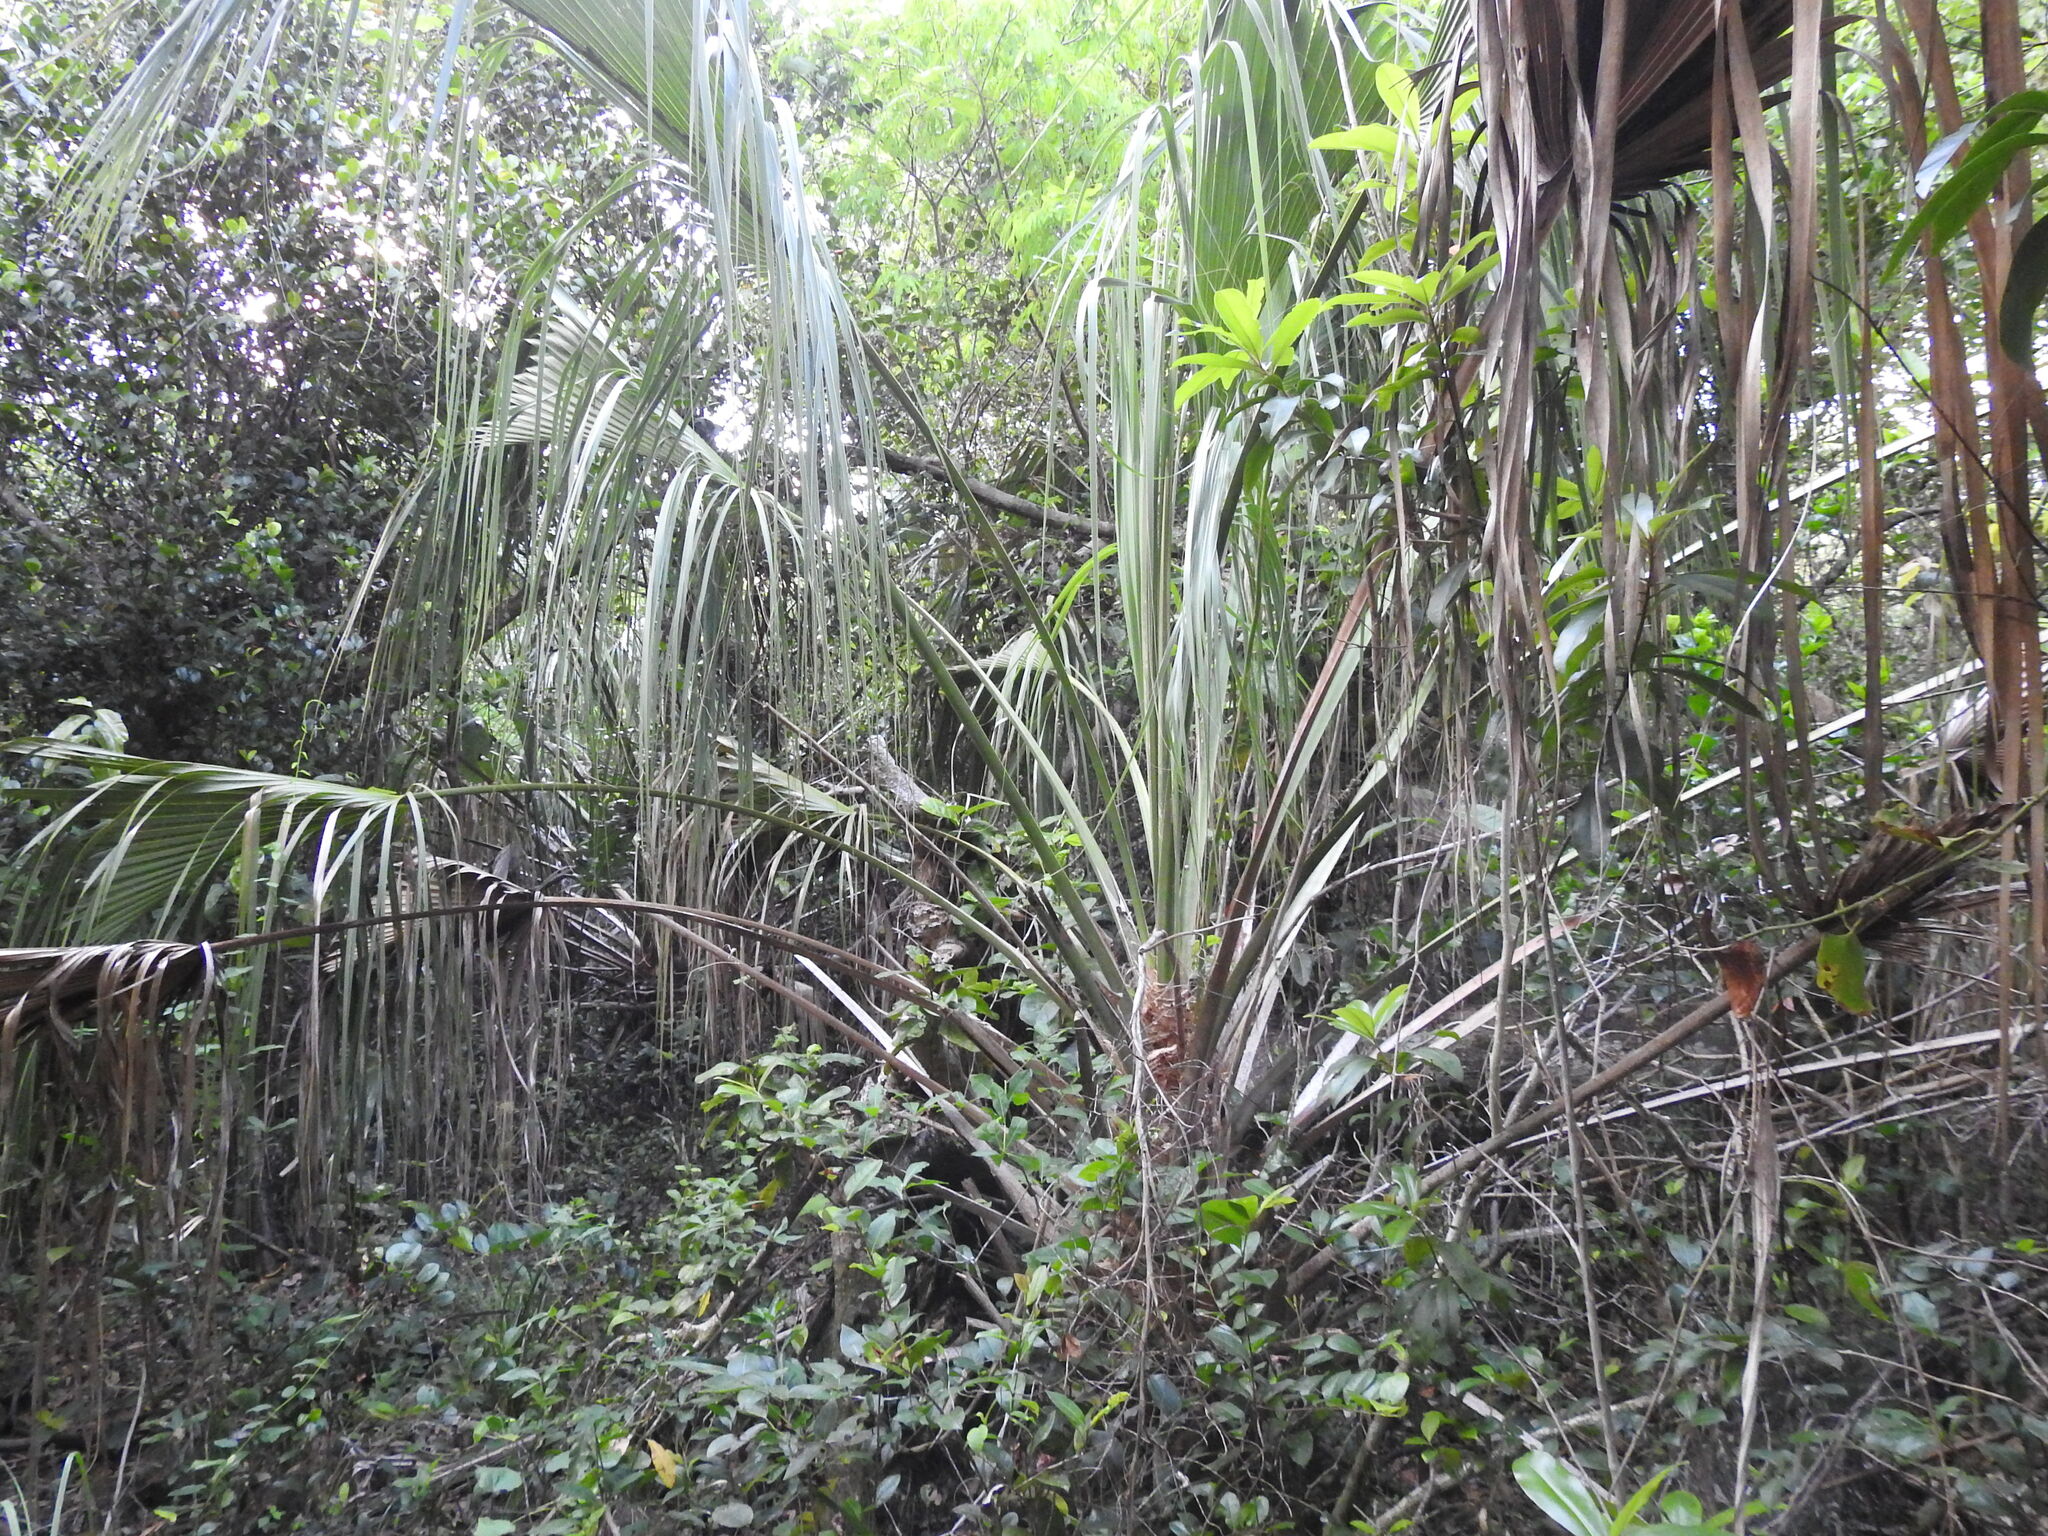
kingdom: Plantae
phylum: Tracheophyta
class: Liliopsida
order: Arecales
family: Arecaceae
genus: Sabal
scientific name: Sabal palmetto
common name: Blue palmetto
